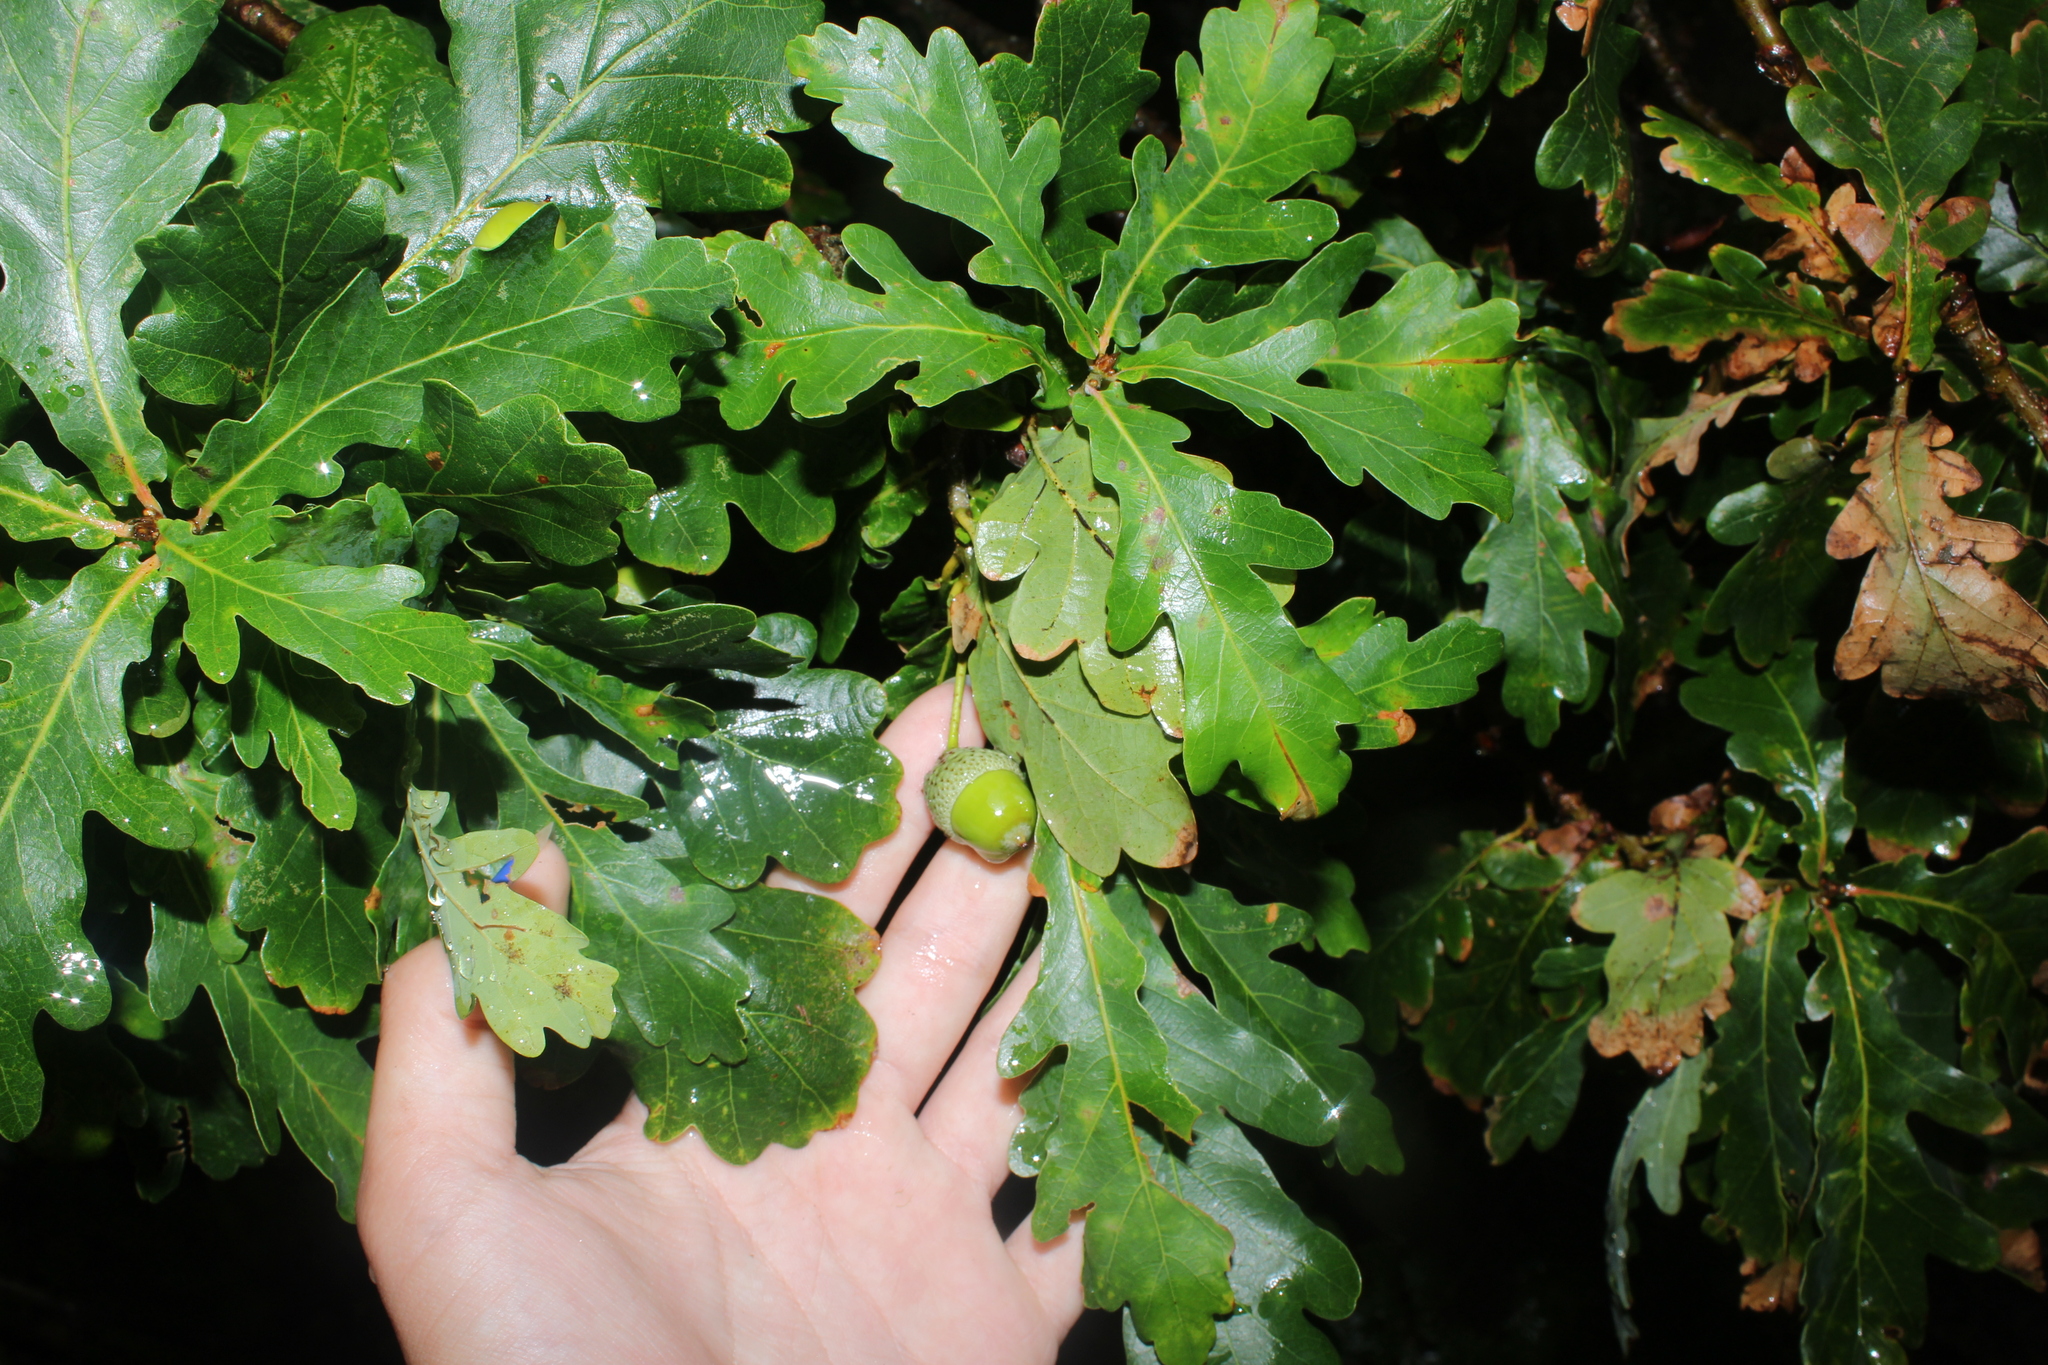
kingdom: Plantae
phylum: Tracheophyta
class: Magnoliopsida
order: Fagales
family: Fagaceae
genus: Quercus
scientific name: Quercus robur
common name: Pedunculate oak
